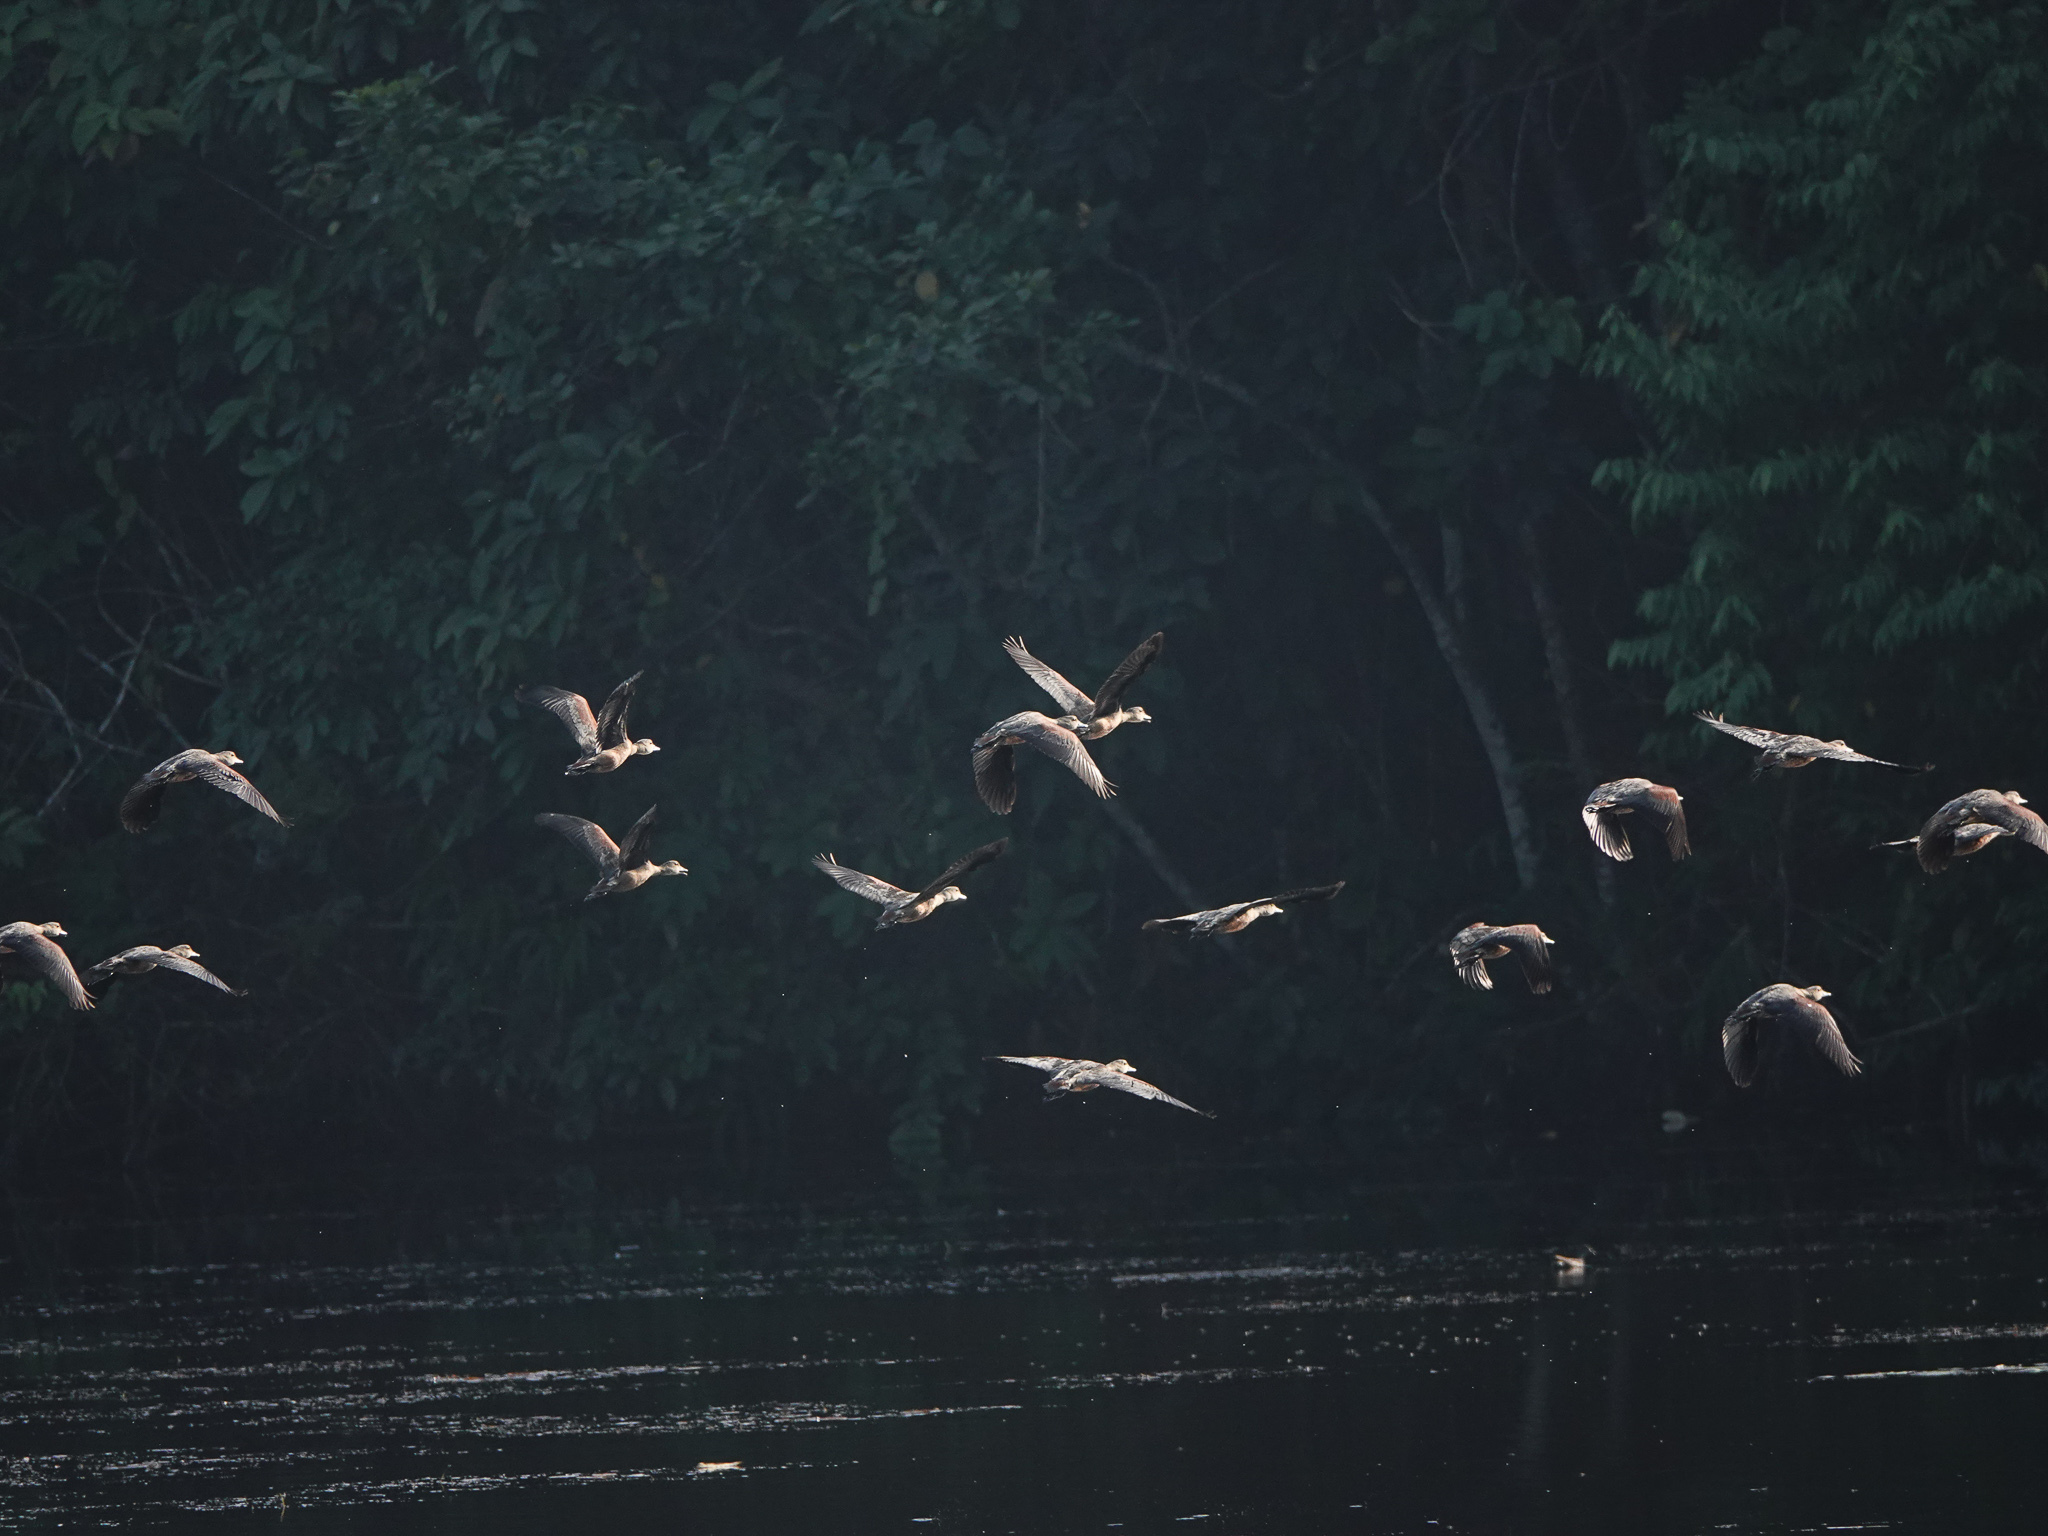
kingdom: Animalia
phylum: Chordata
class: Aves
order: Anseriformes
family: Anatidae
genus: Dendrocygna
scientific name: Dendrocygna javanica
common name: Lesser whistling-duck
